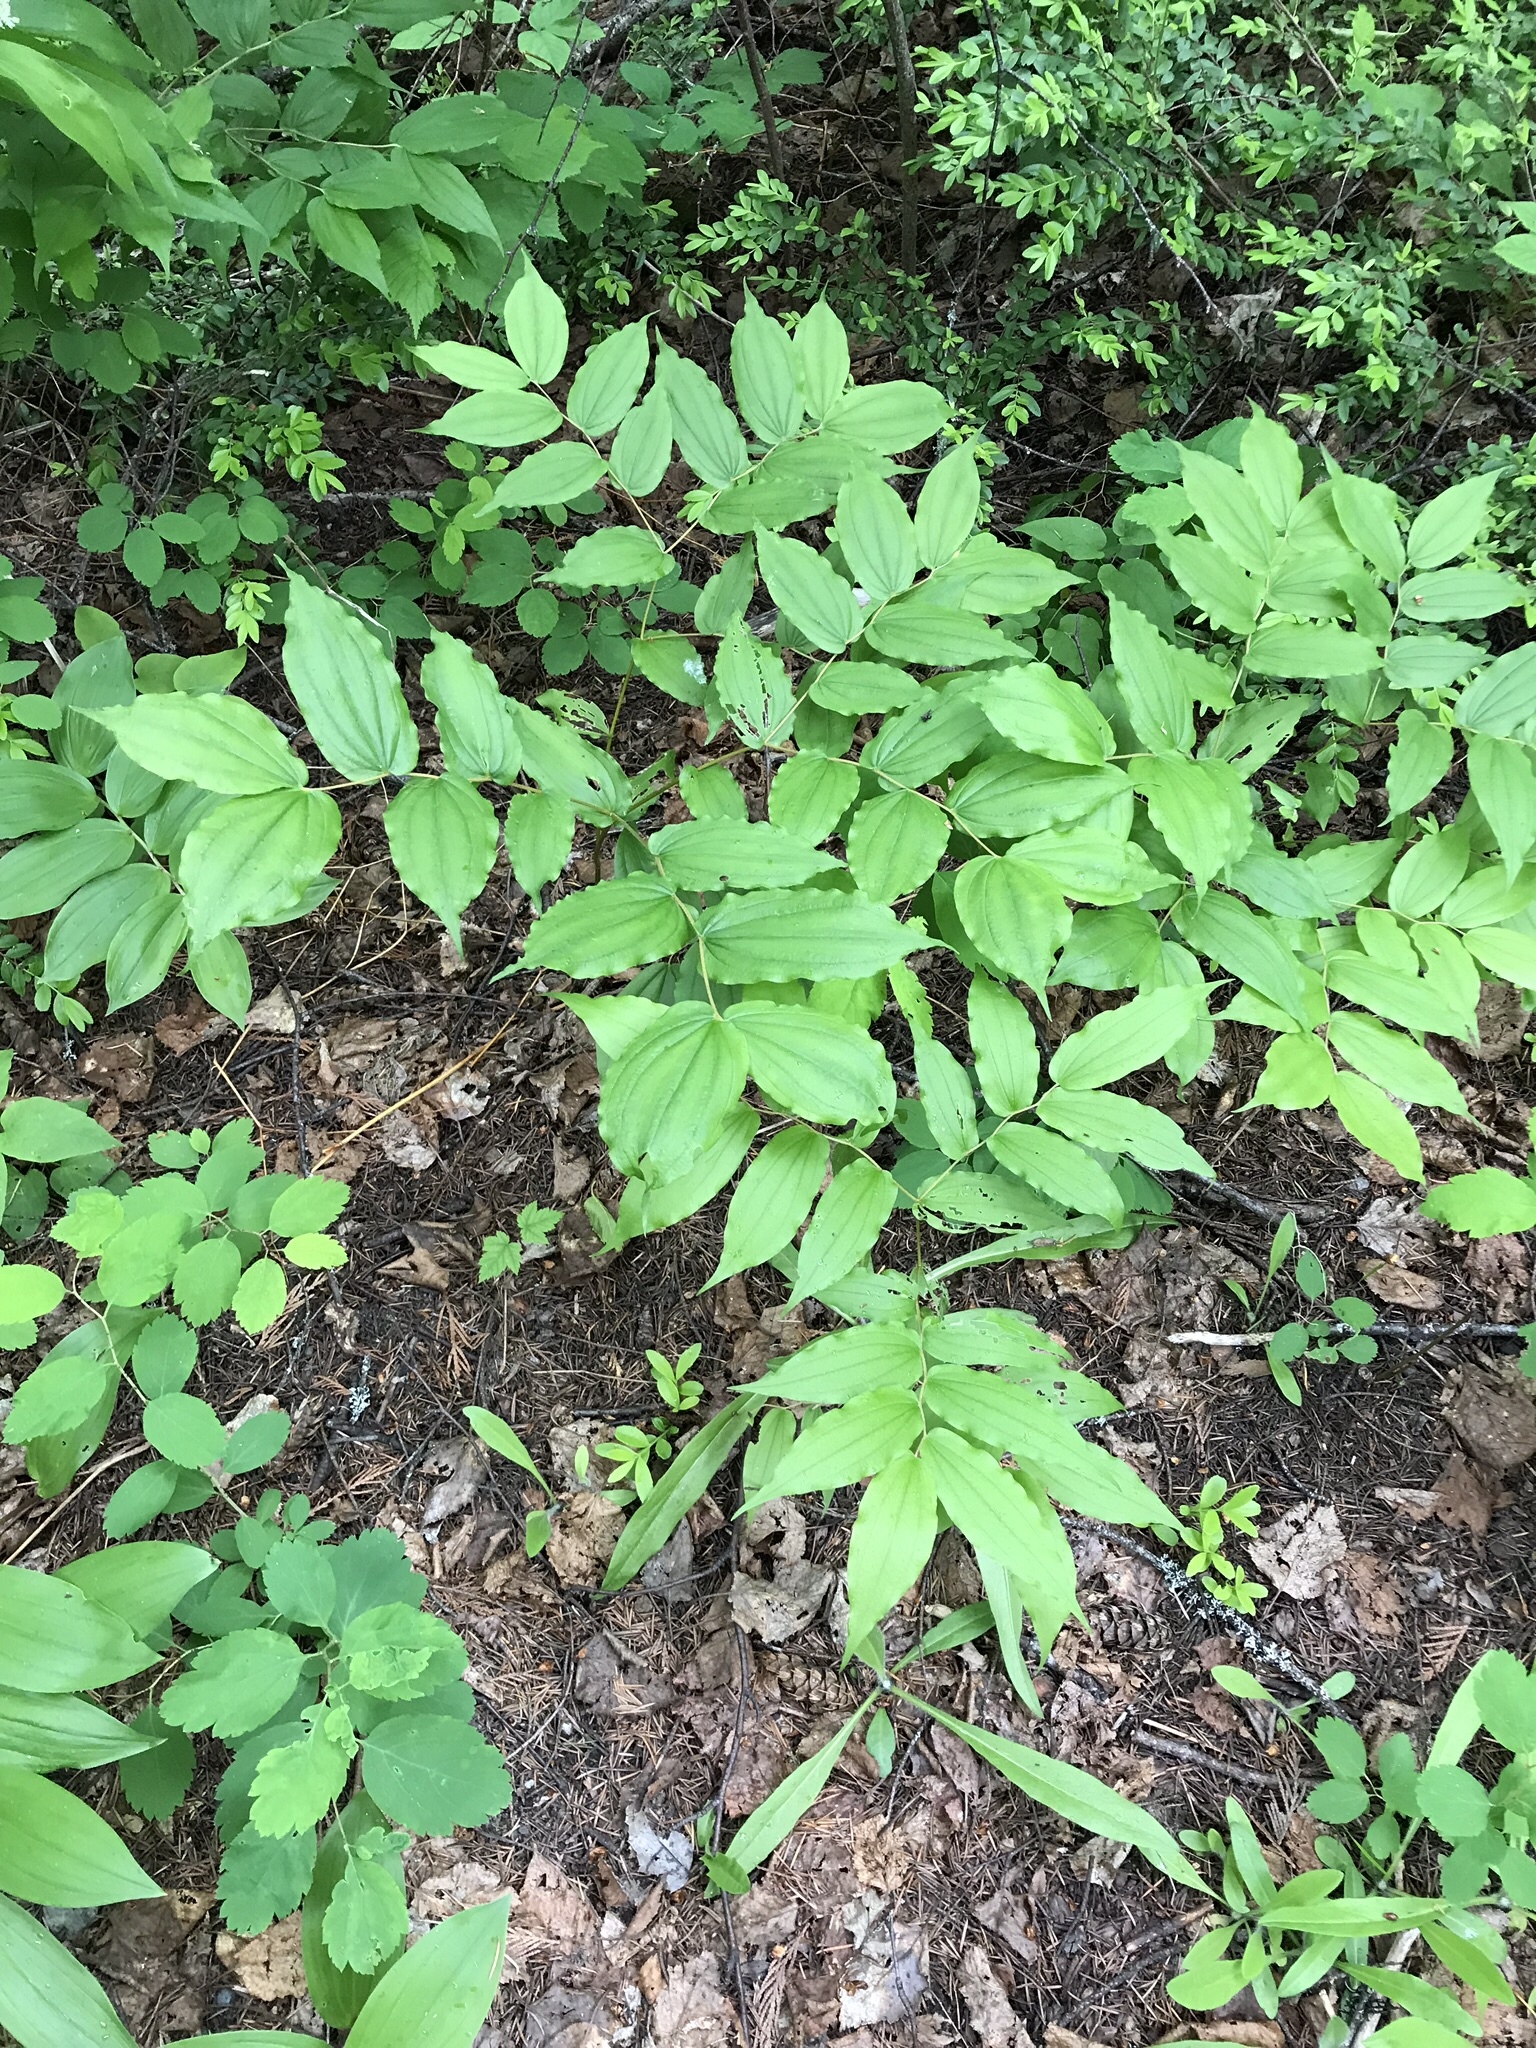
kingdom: Plantae
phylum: Tracheophyta
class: Liliopsida
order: Liliales
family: Liliaceae
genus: Prosartes
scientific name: Prosartes hookeri
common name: Fairy-bells
